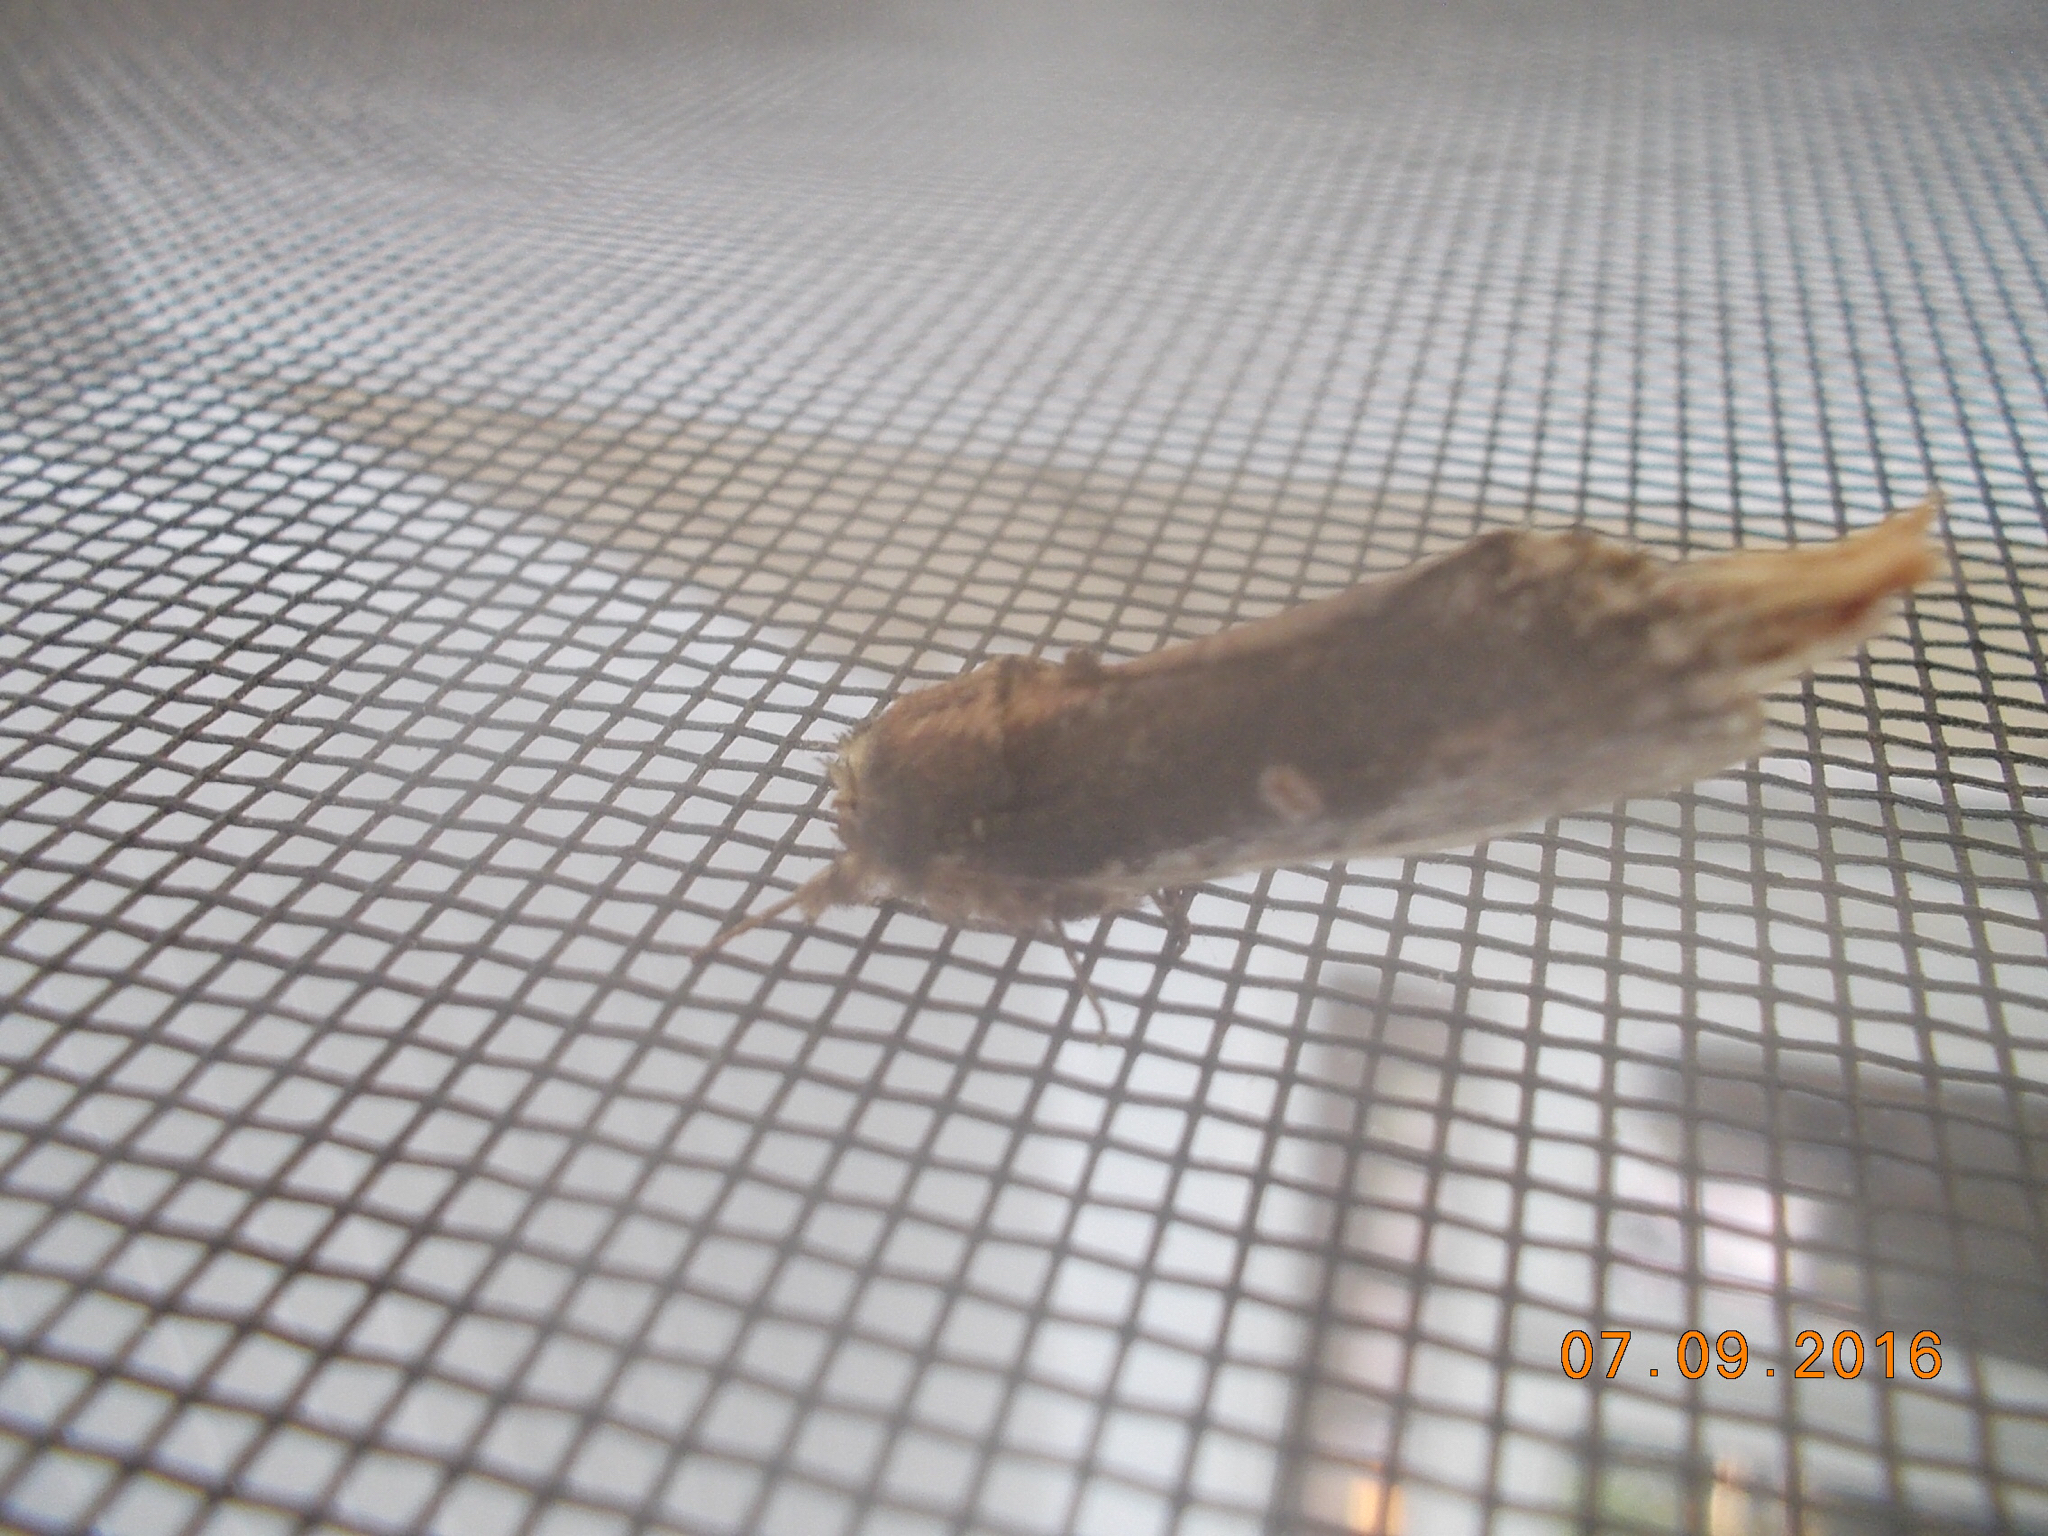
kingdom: Animalia
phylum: Arthropoda
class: Insecta
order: Lepidoptera
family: Notodontidae
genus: Schizura
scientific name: Schizura ipomaeae
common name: Morning-glory prominent
